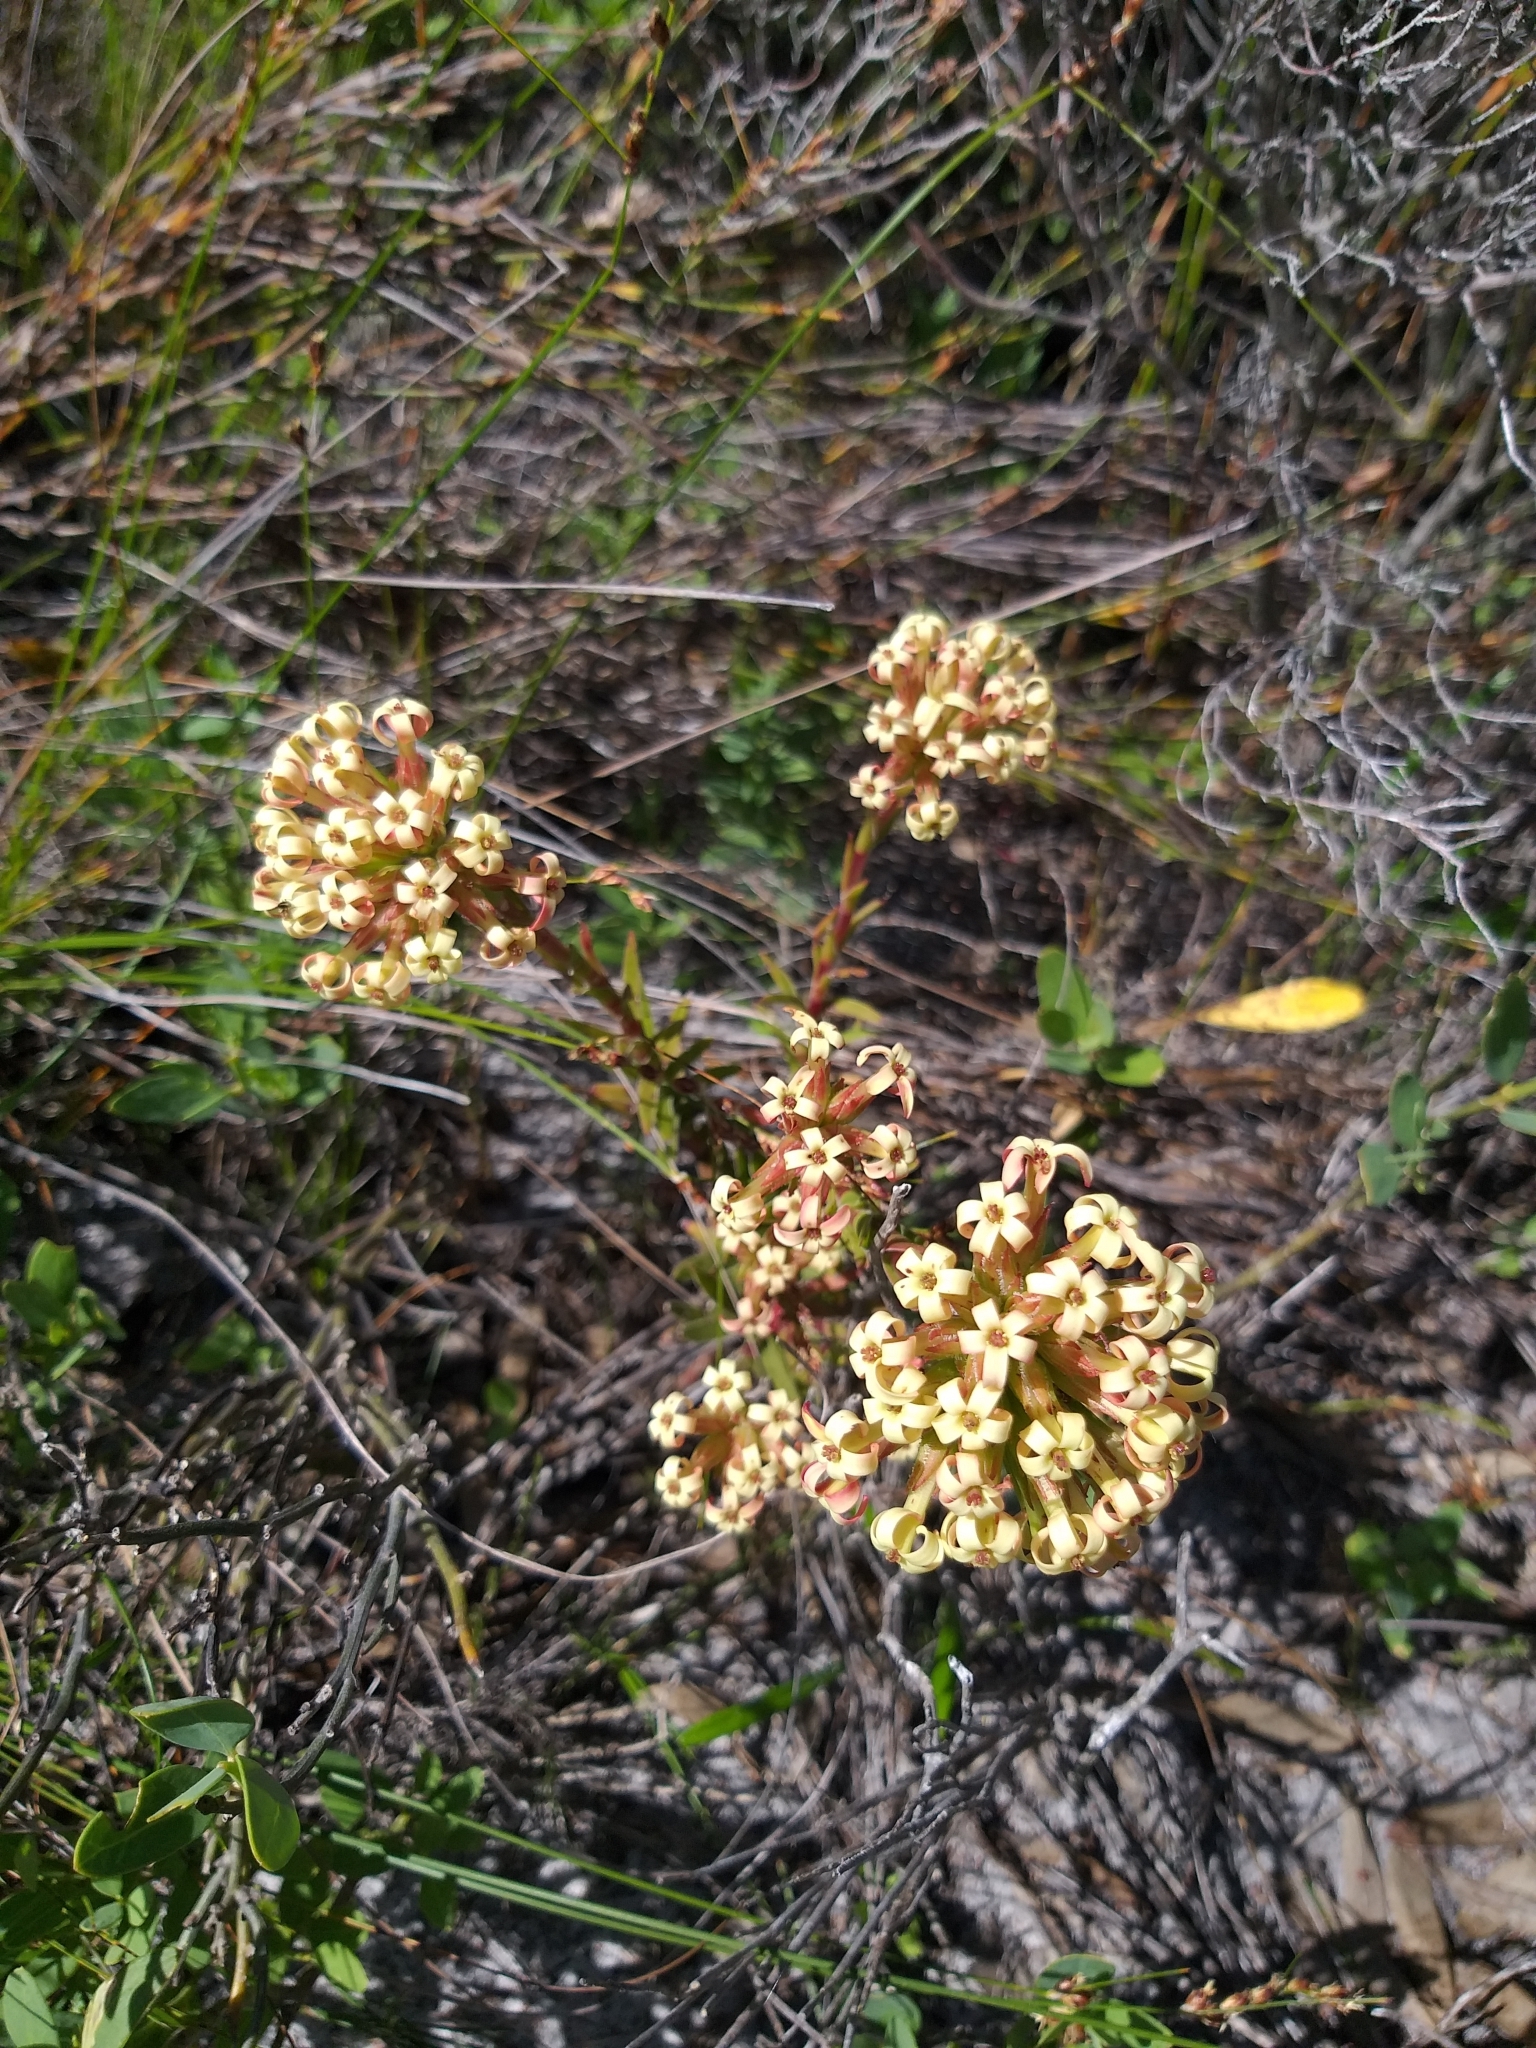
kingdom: Plantae
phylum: Tracheophyta
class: Magnoliopsida
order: Saxifragales
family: Crassulaceae
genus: Crassula
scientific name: Crassula fascicularis
